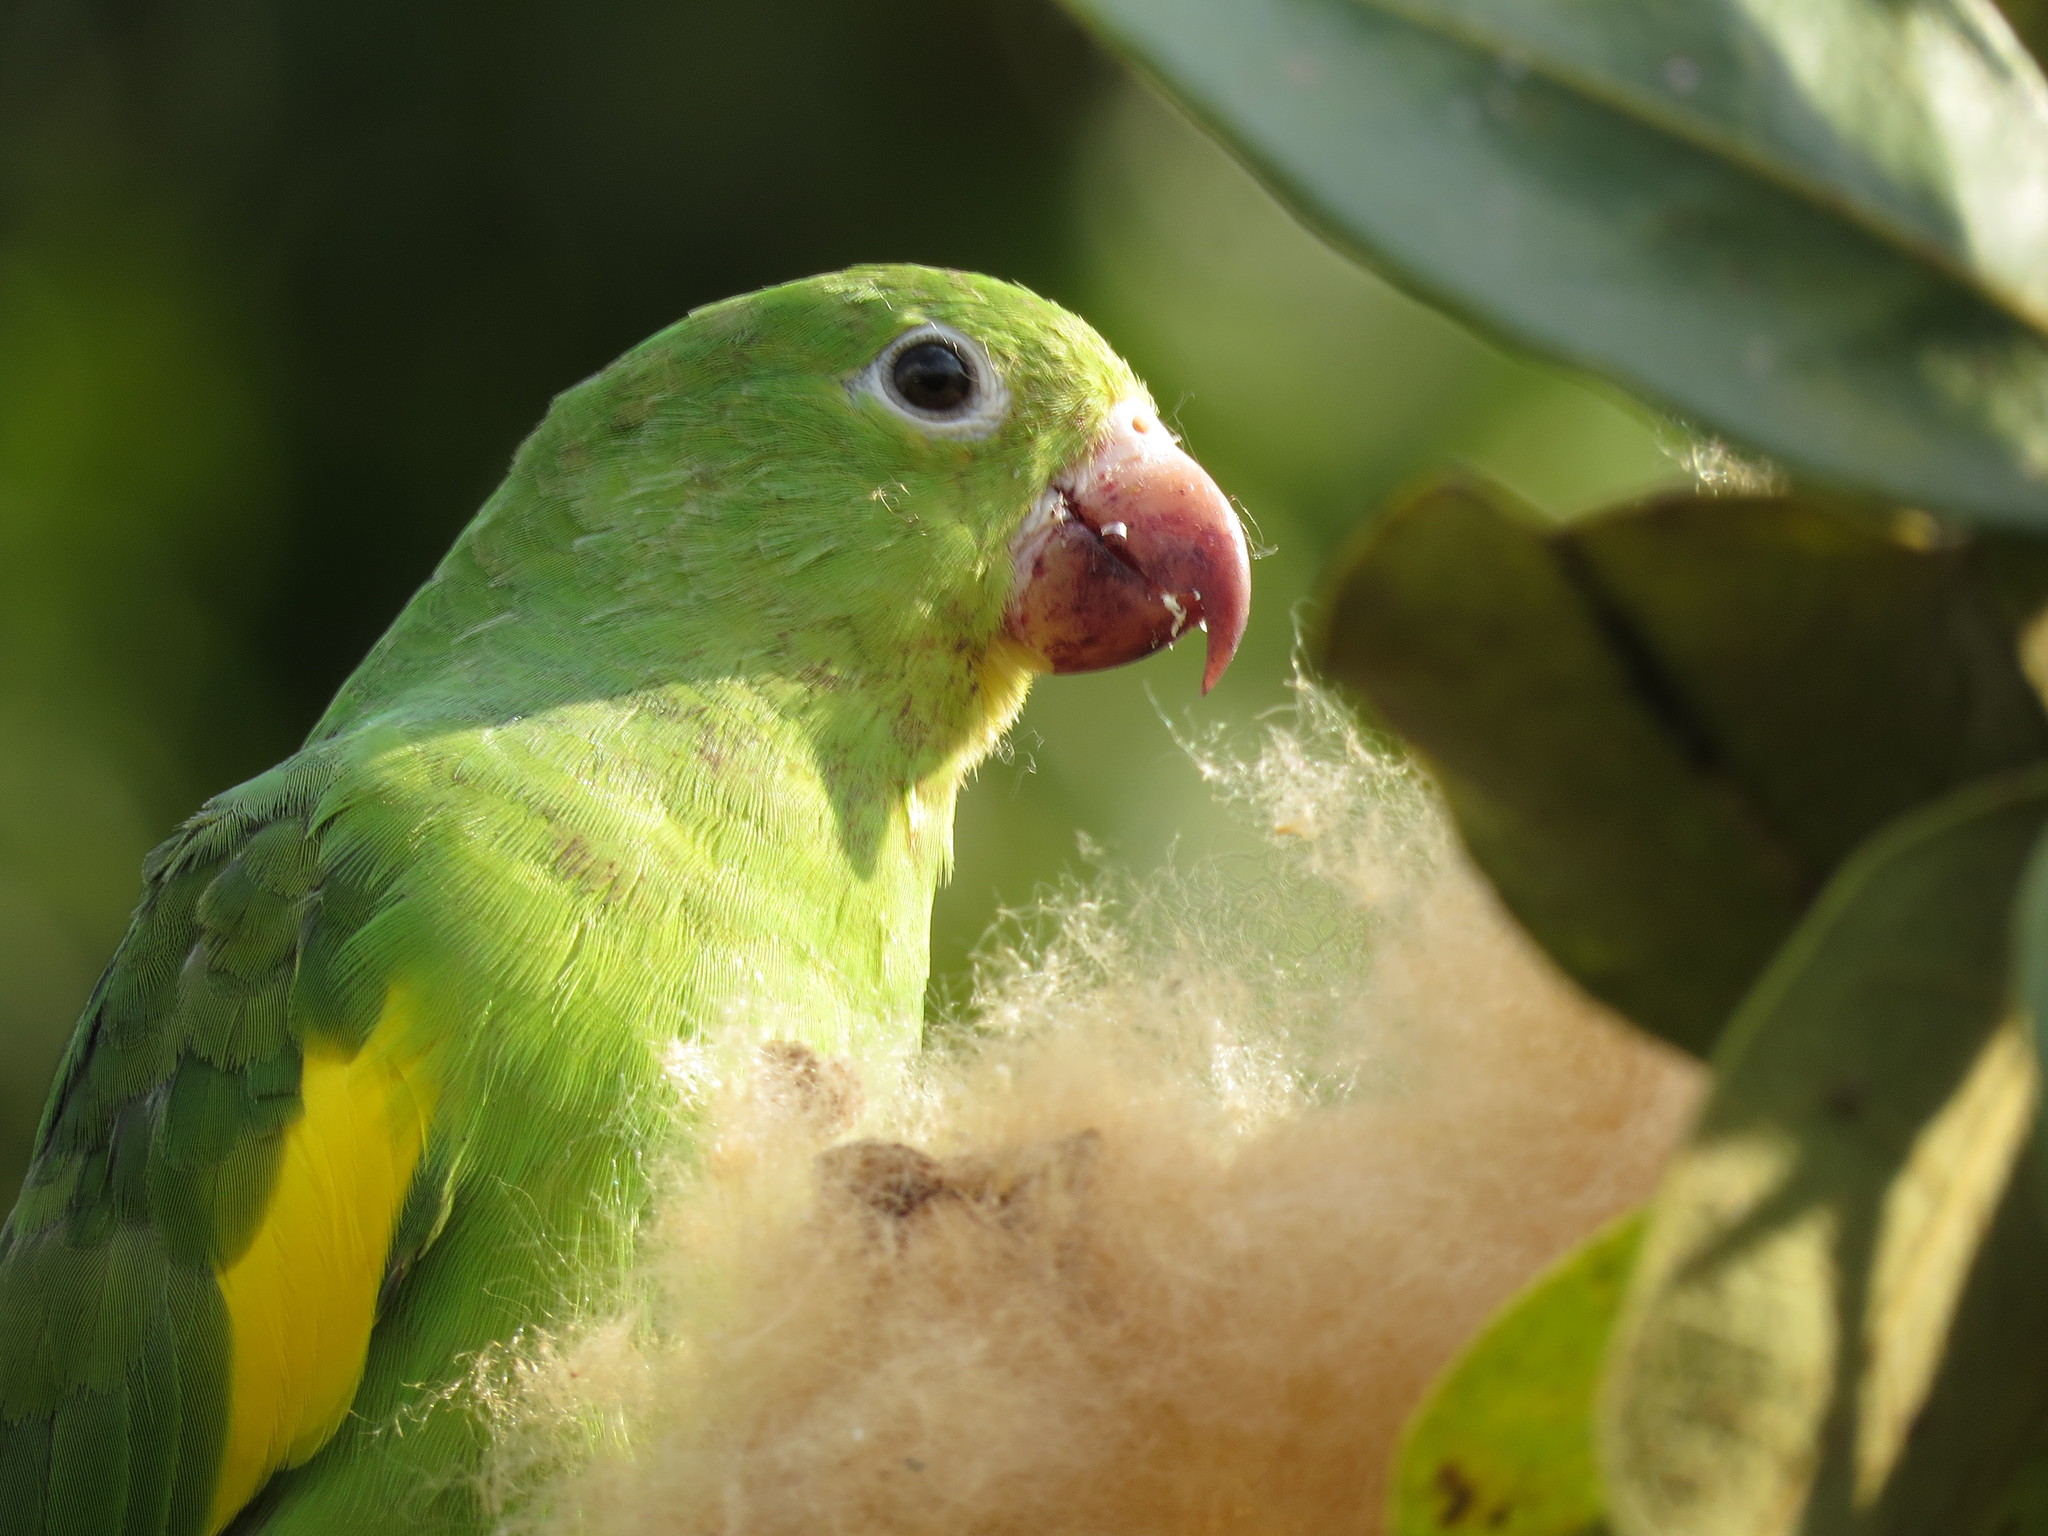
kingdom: Animalia
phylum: Chordata
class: Aves
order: Psittaciformes
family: Psittacidae
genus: Brotogeris
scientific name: Brotogeris chiriri
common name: Yellow-chevroned parakeet
